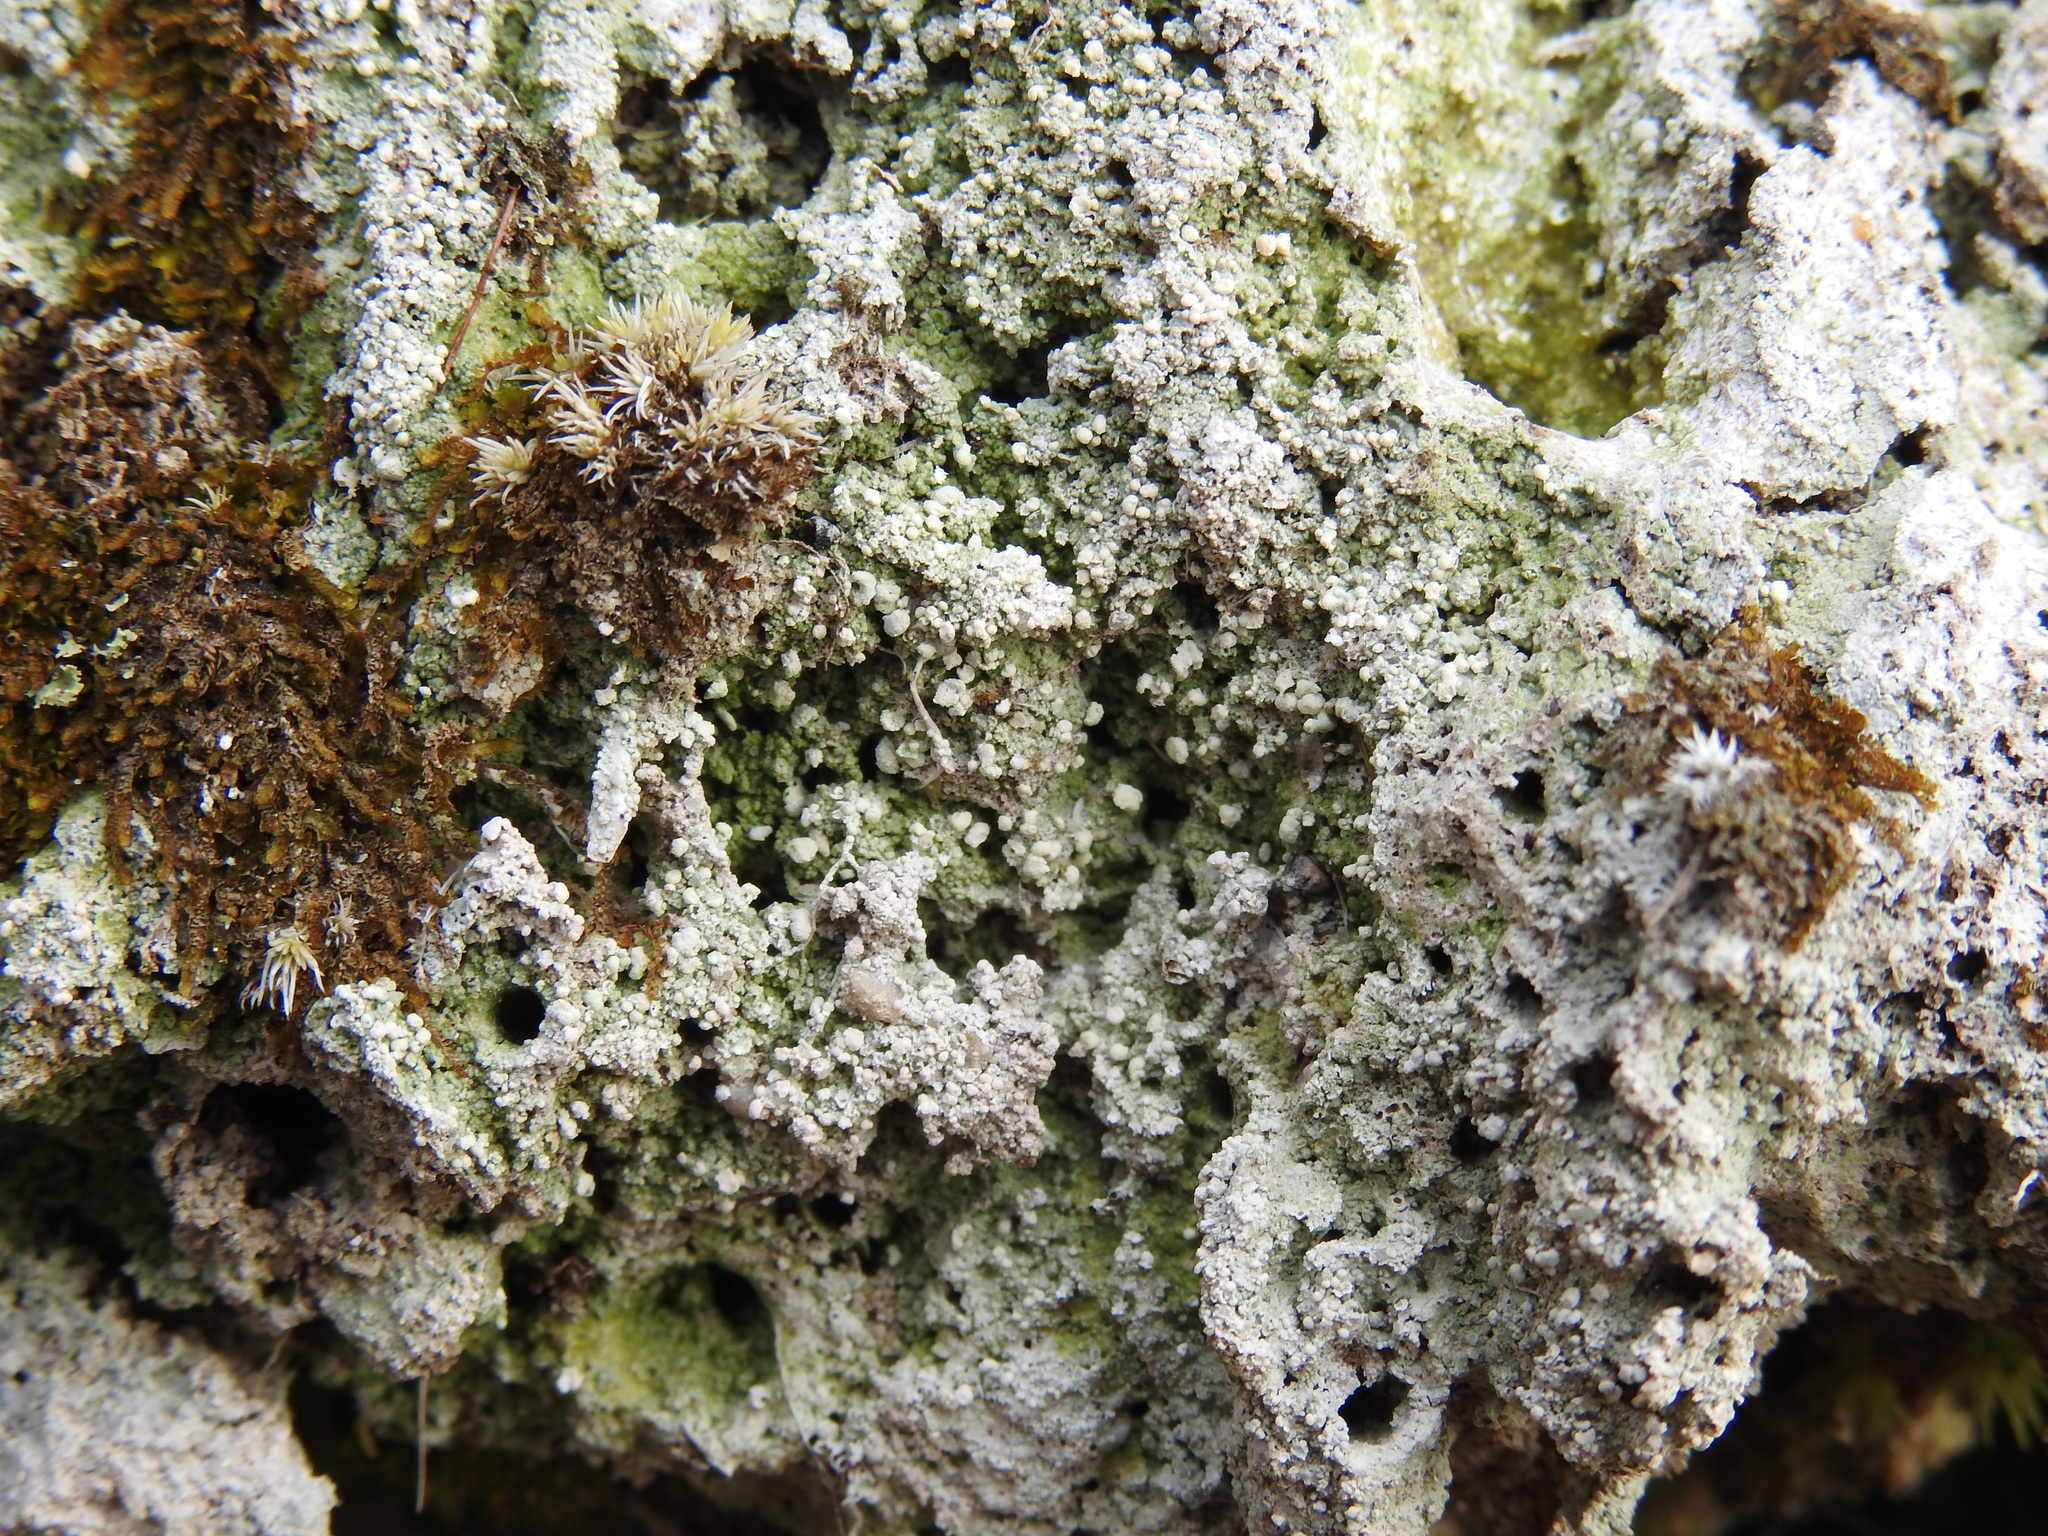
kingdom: Fungi
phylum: Ascomycota
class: Lecanoromycetes
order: Pertusariales
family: Icmadophilaceae
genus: Dibaeis
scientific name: Dibaeis baeomyces
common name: Pink earth lichen
